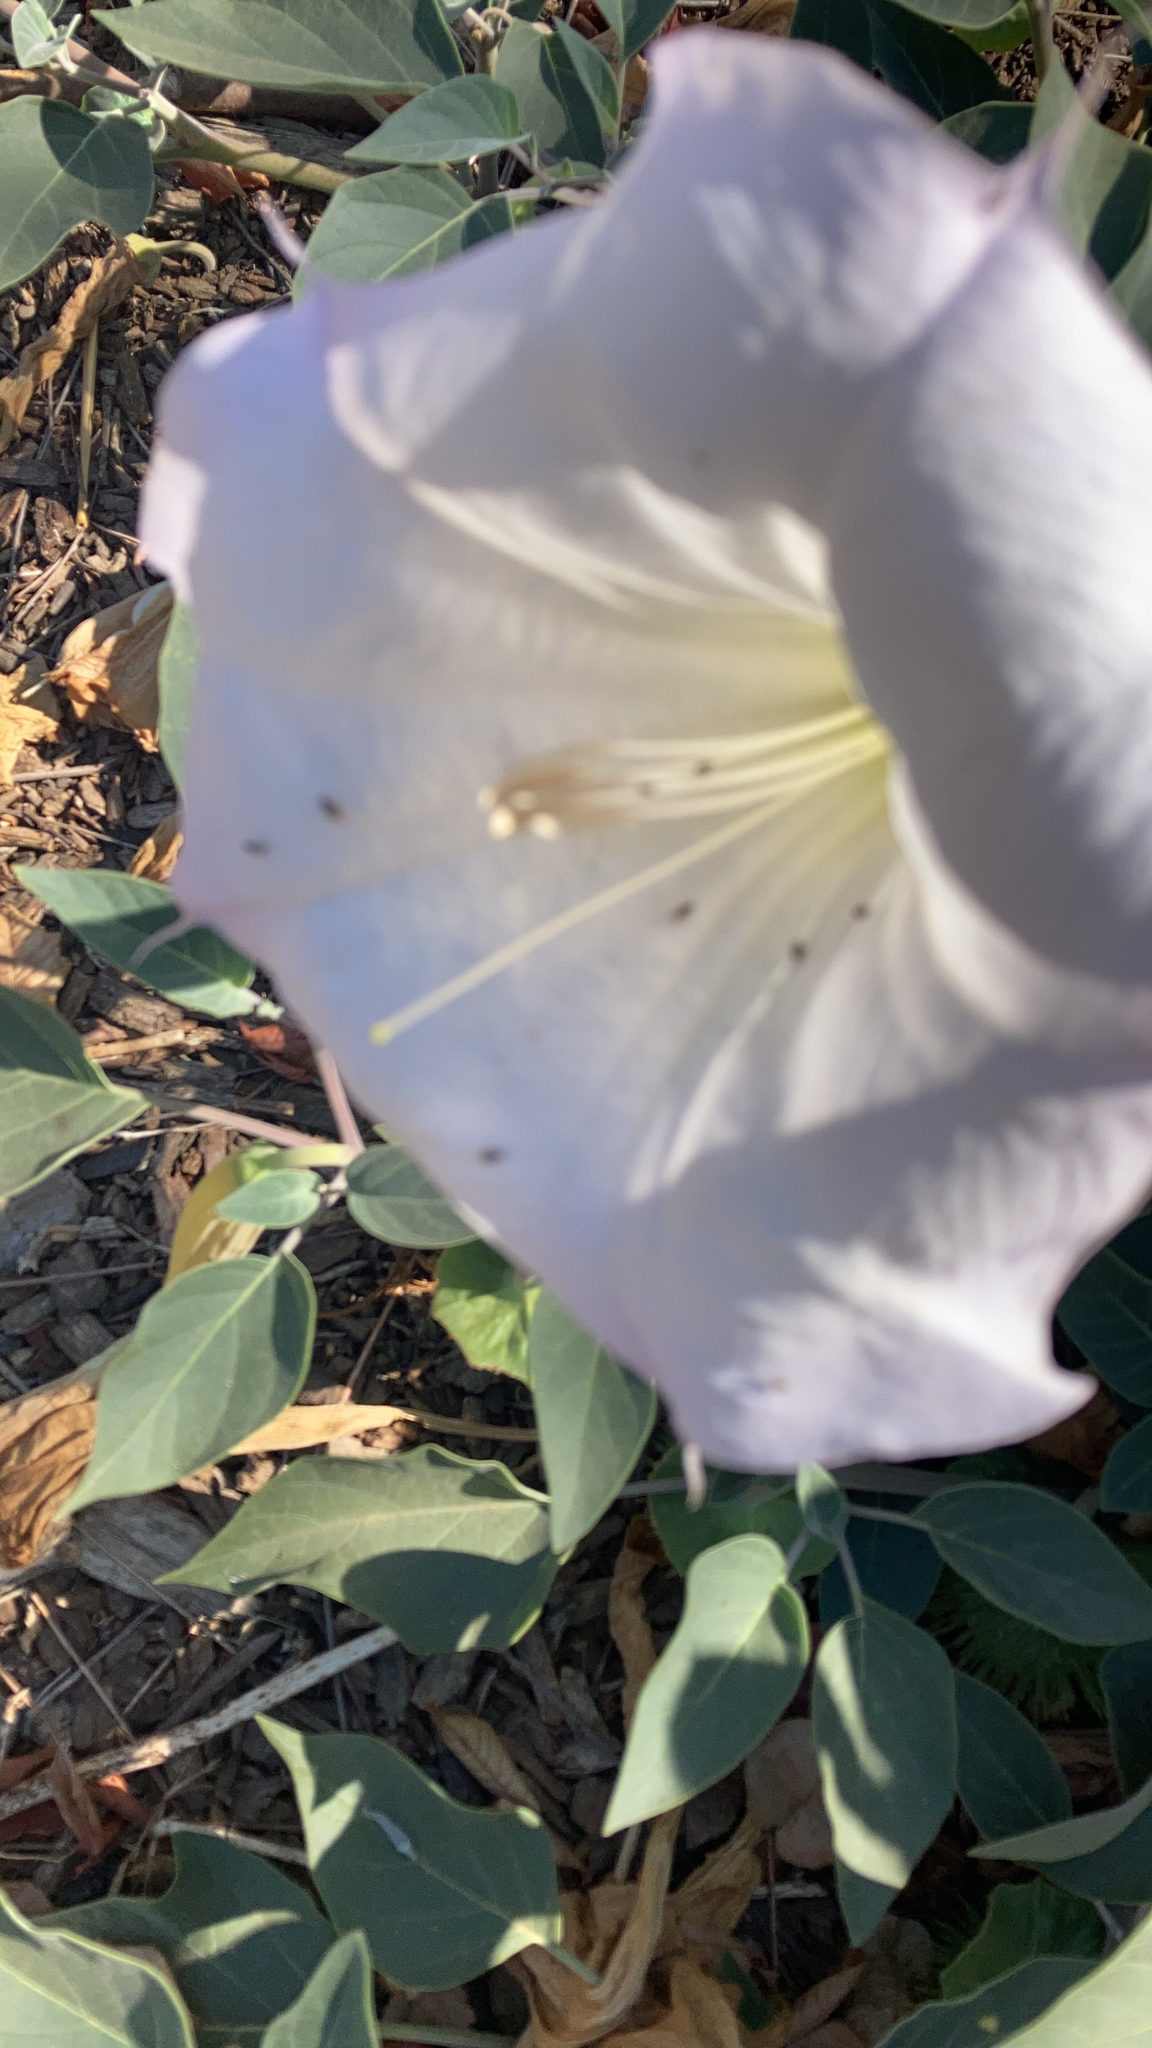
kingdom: Plantae
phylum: Tracheophyta
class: Magnoliopsida
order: Solanales
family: Solanaceae
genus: Datura
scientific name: Datura wrightii
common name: Sacred thorn-apple
